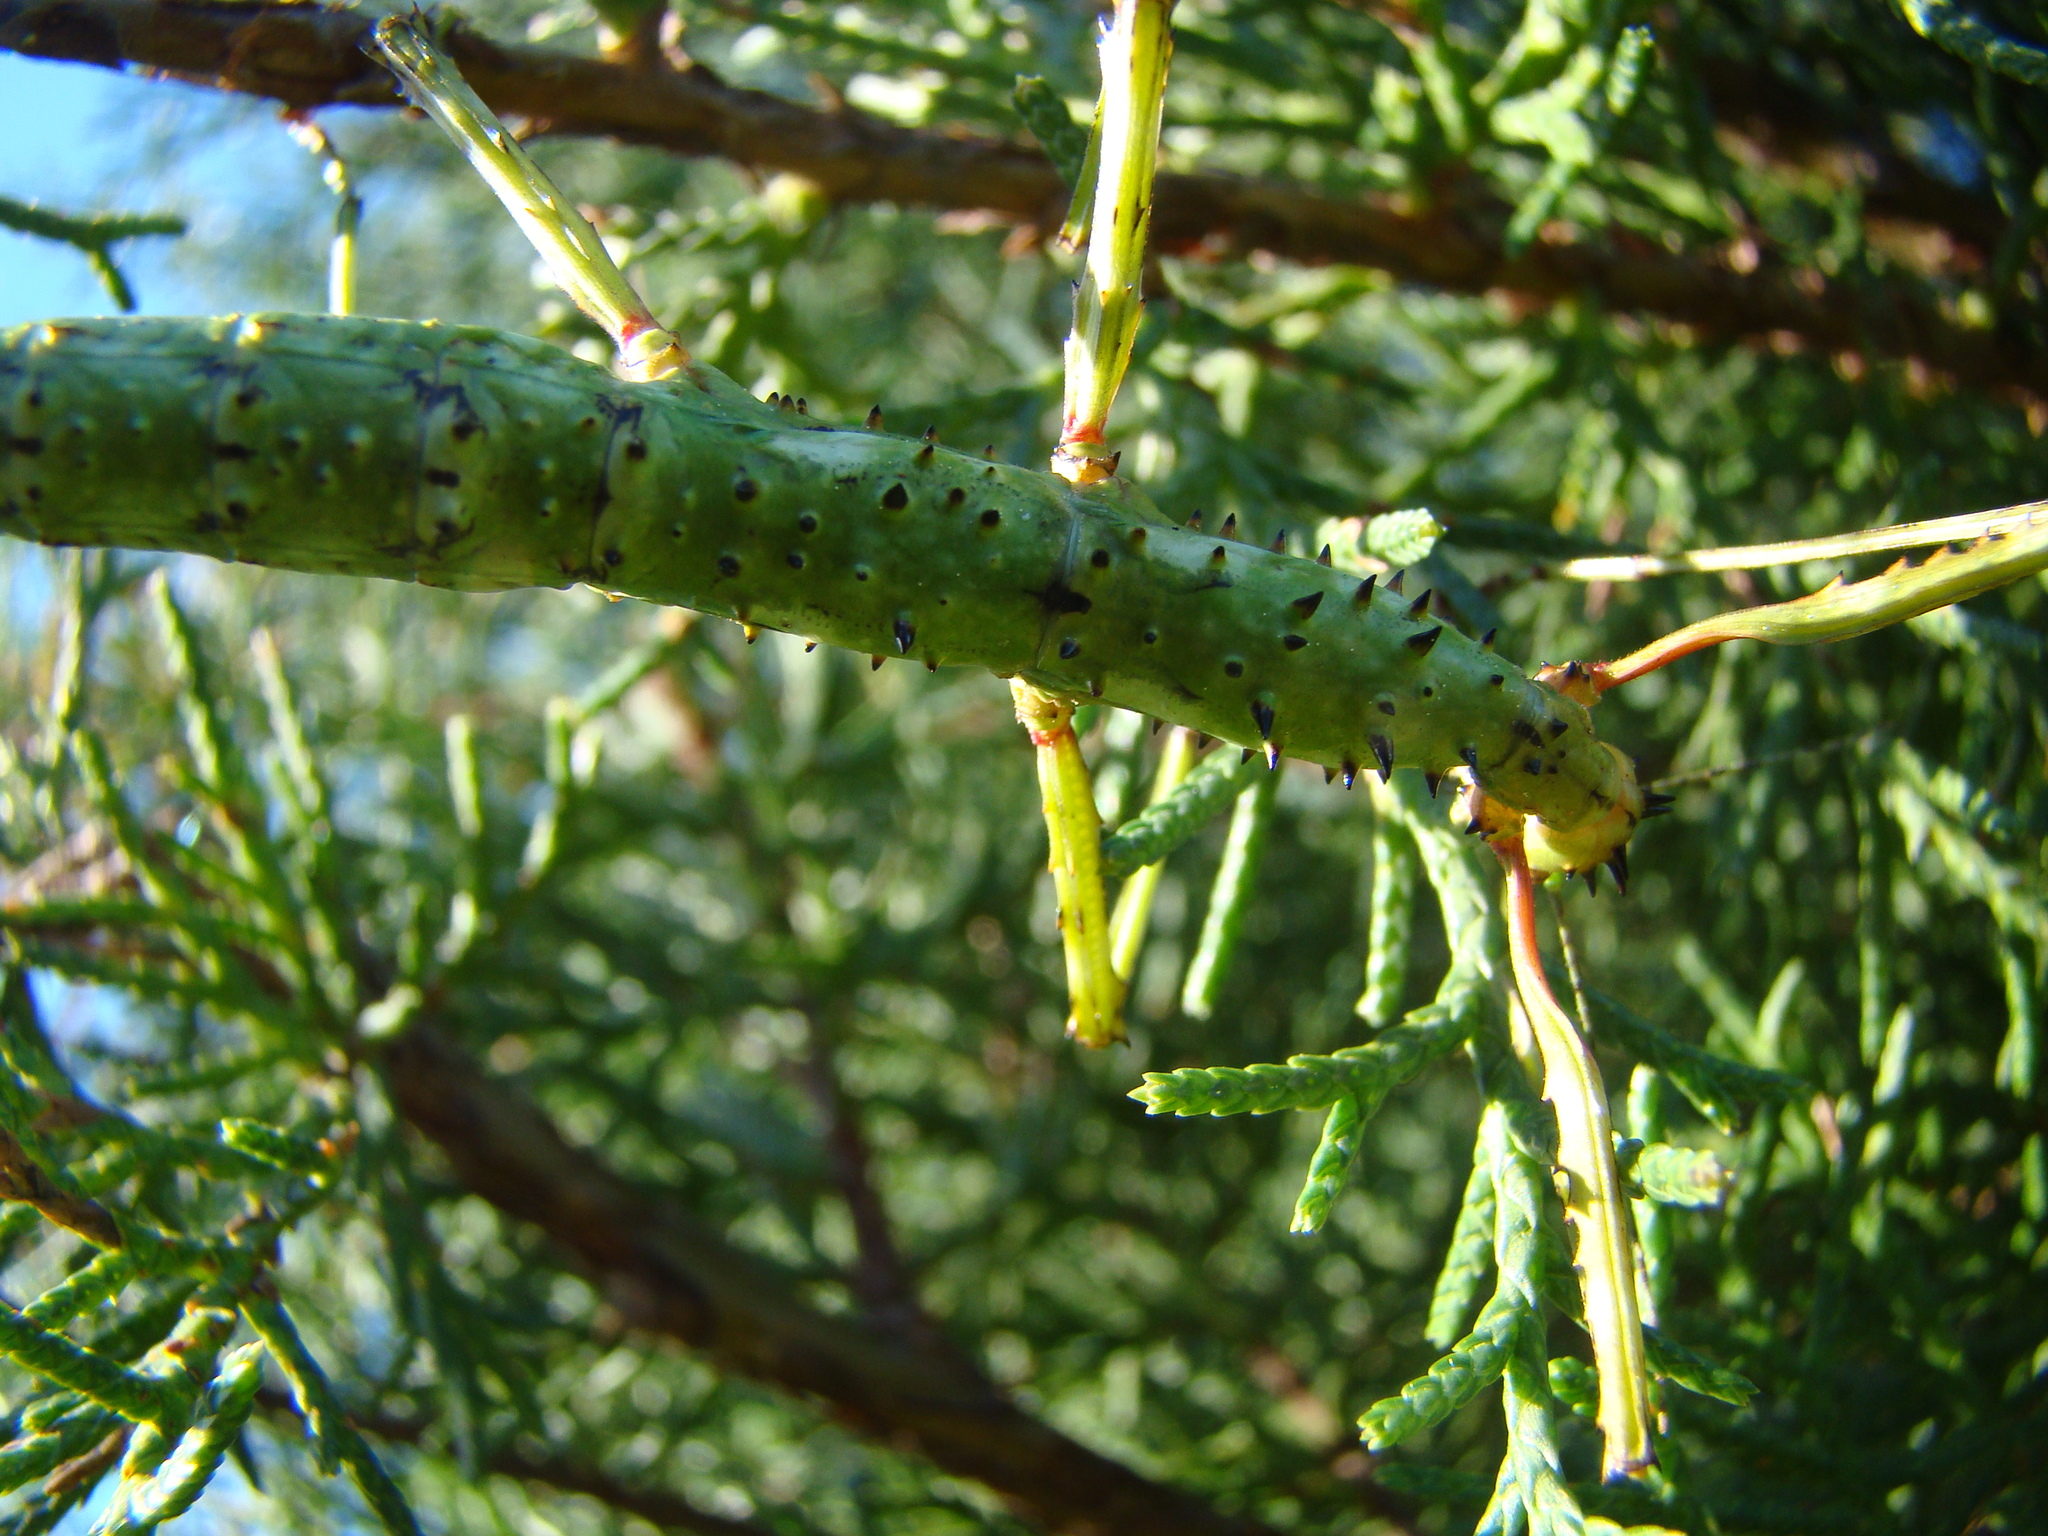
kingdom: Animalia
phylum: Arthropoda
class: Insecta
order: Phasmida
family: Phasmatidae
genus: Acanthoxyla
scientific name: Acanthoxyla prasina
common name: Black-spined stick insect
